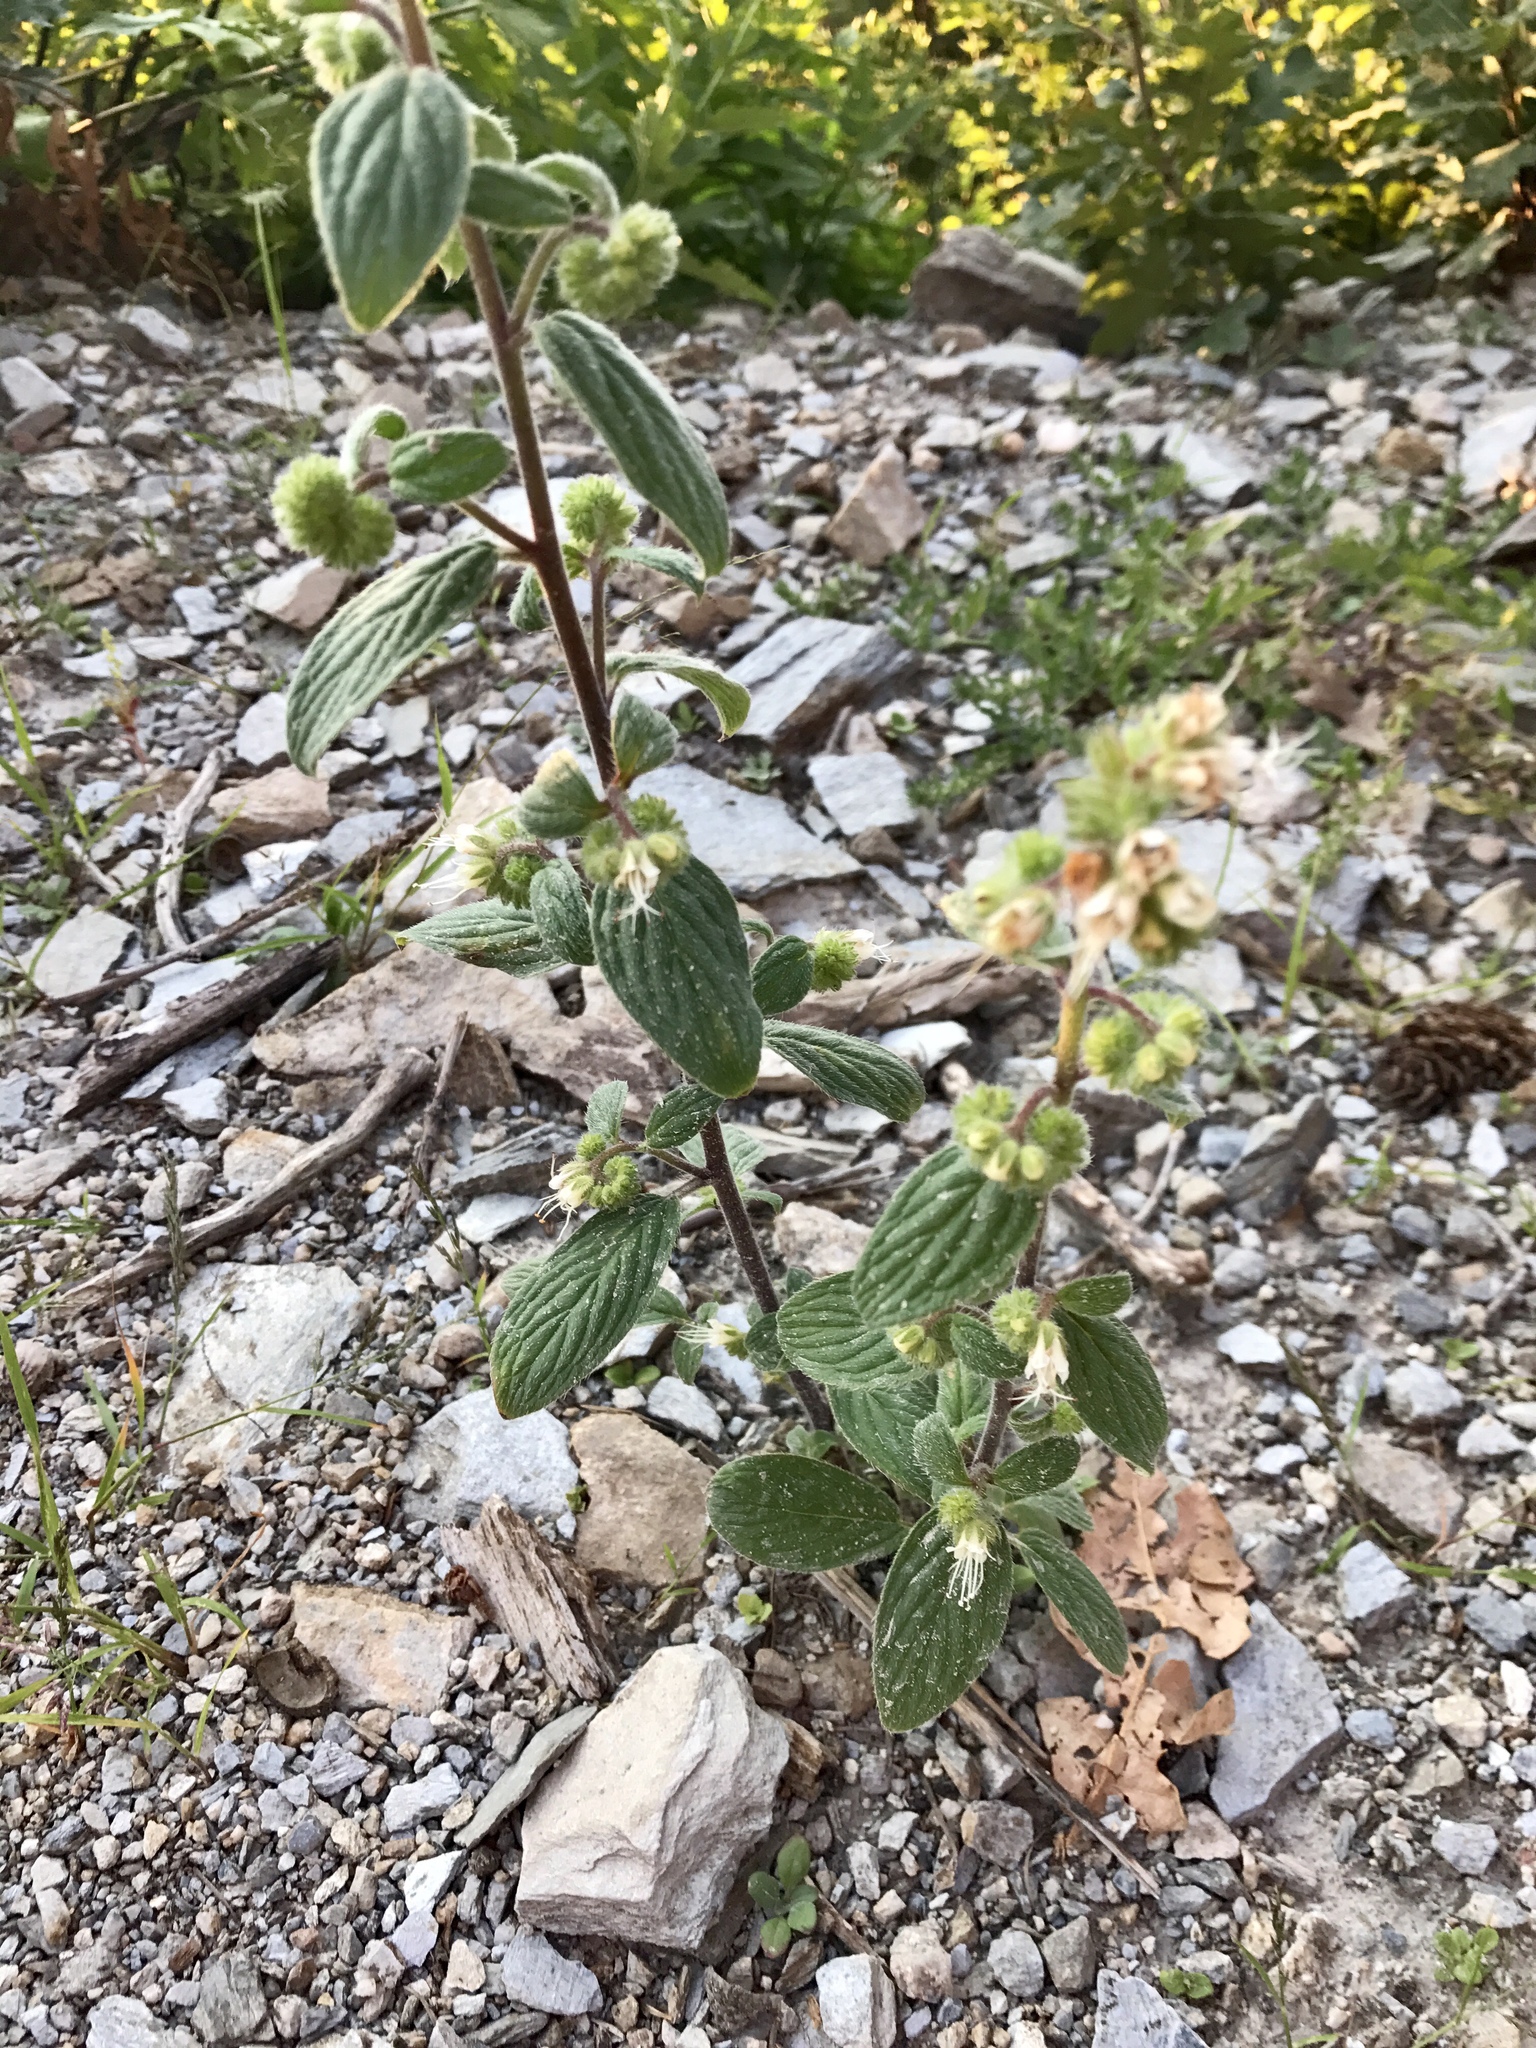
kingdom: Plantae
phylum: Tracheophyta
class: Magnoliopsida
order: Boraginales
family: Hydrophyllaceae
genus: Phacelia
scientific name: Phacelia heterophylla
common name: Variable-leaved phacelia
